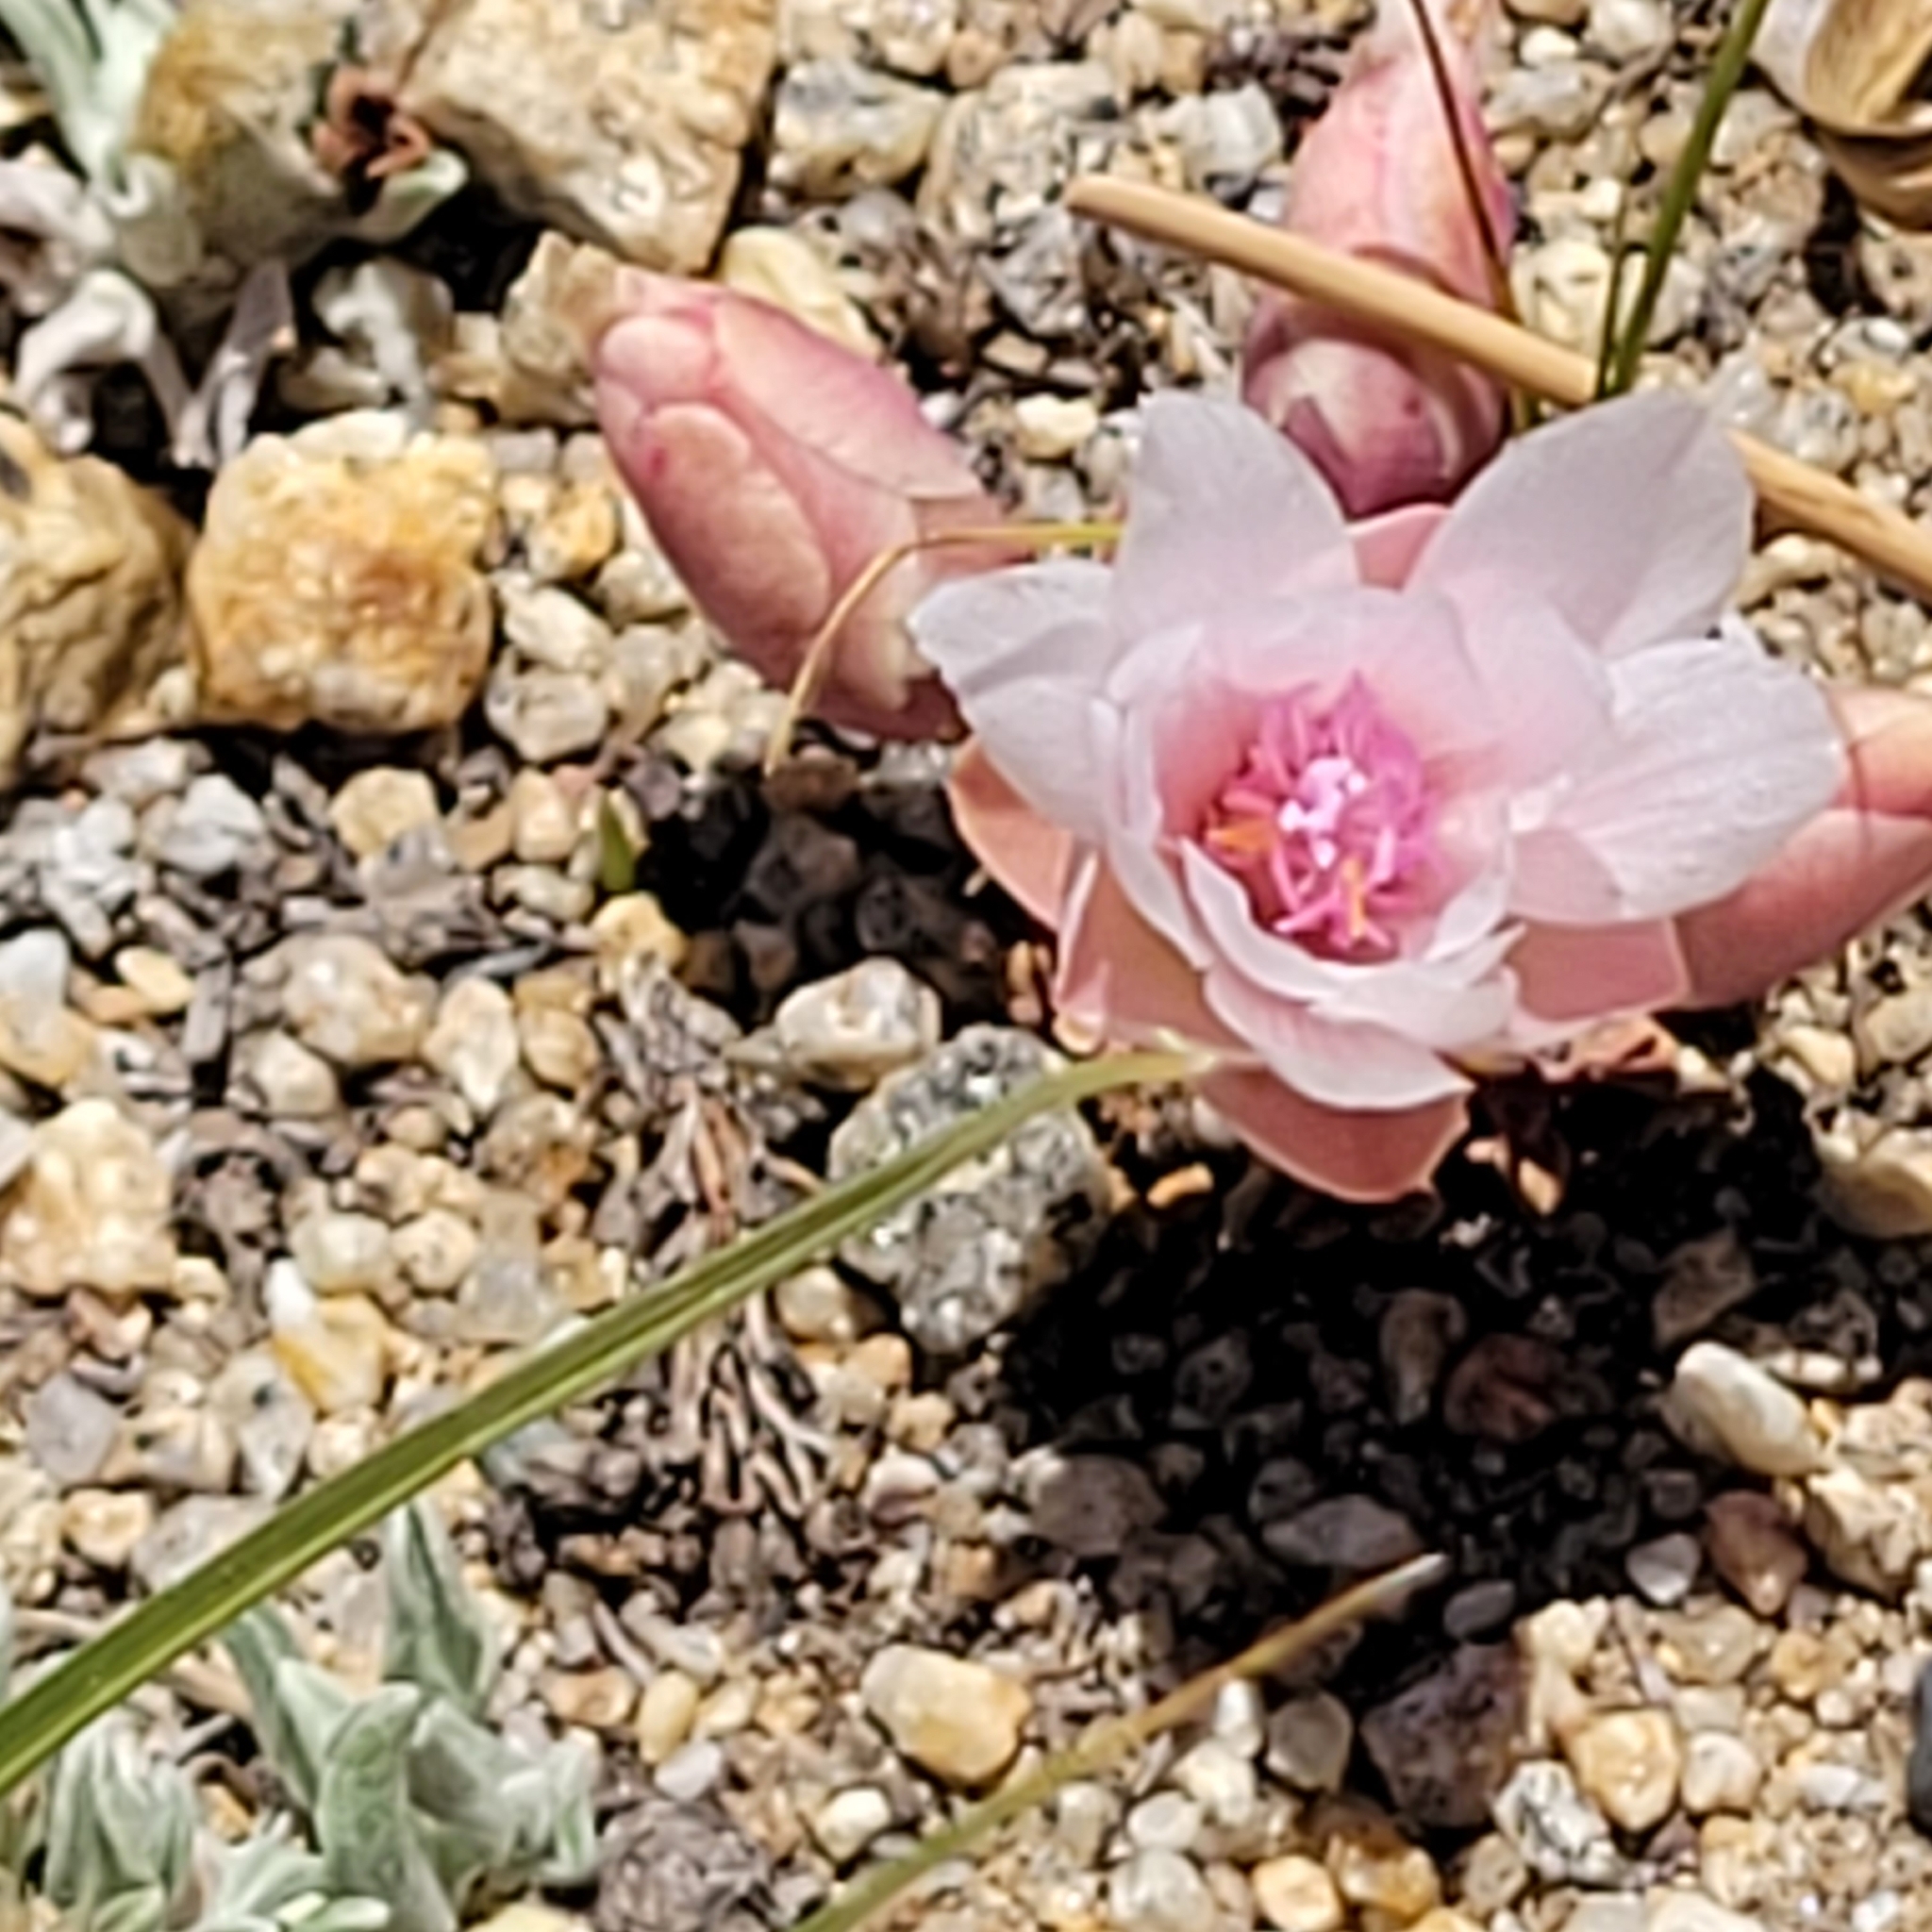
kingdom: Plantae
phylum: Tracheophyta
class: Magnoliopsida
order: Caryophyllales
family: Montiaceae
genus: Lewisia
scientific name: Lewisia rediviva
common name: Bitter-root
